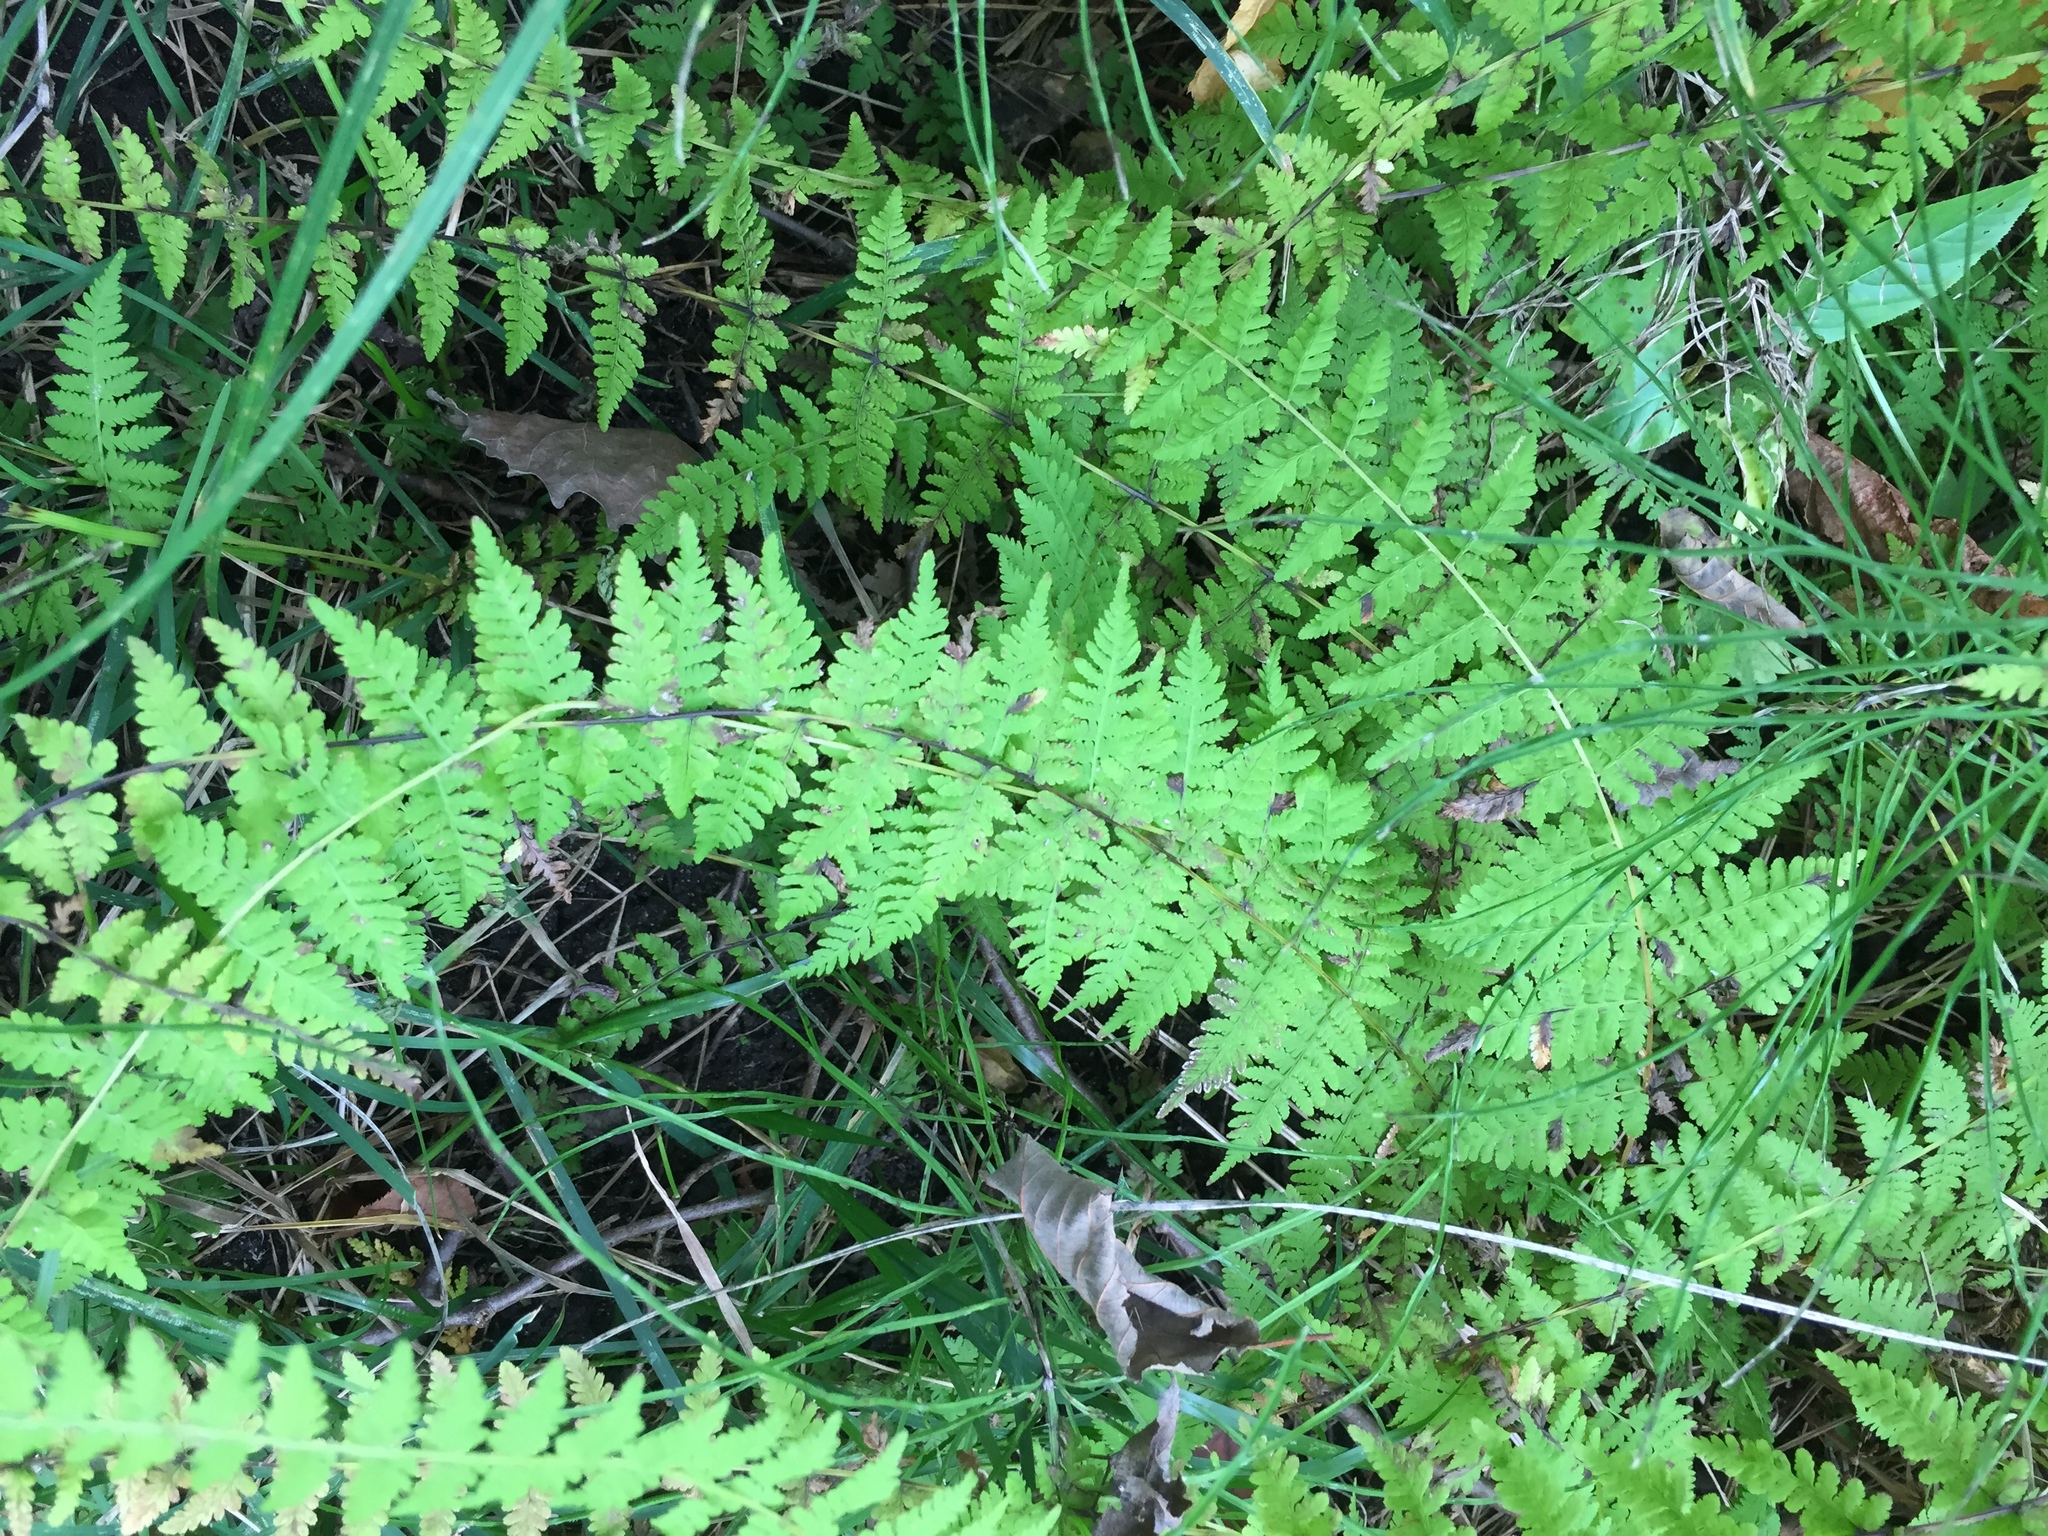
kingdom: Plantae
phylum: Tracheophyta
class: Polypodiopsida
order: Polypodiales
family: Cystopteridaceae
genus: Cystopteris
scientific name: Cystopteris bulbifera
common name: Bulblet bladder fern
